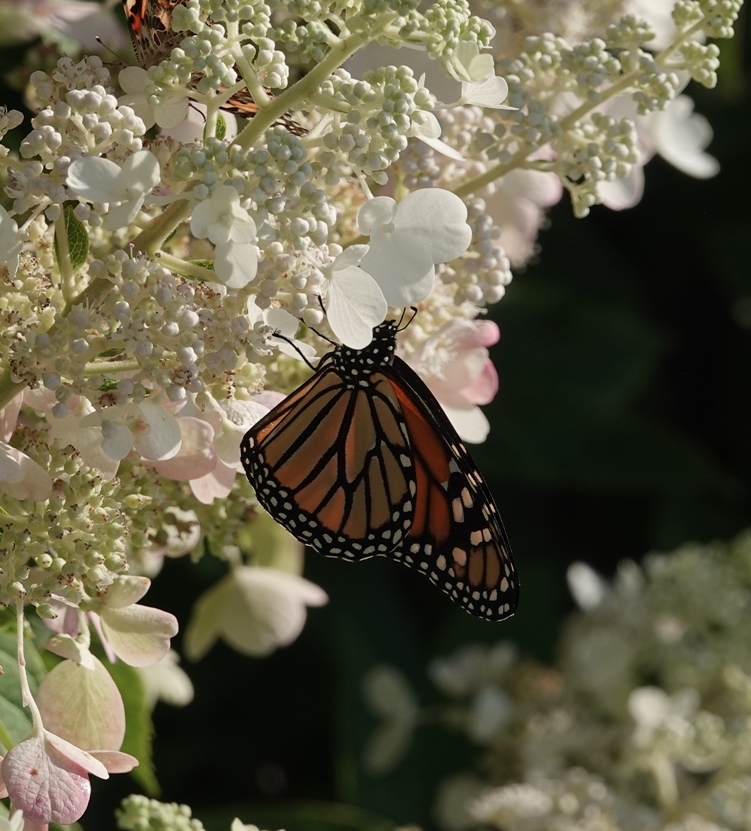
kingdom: Animalia
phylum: Arthropoda
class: Insecta
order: Lepidoptera
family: Nymphalidae
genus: Danaus
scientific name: Danaus plexippus
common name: Monarch
